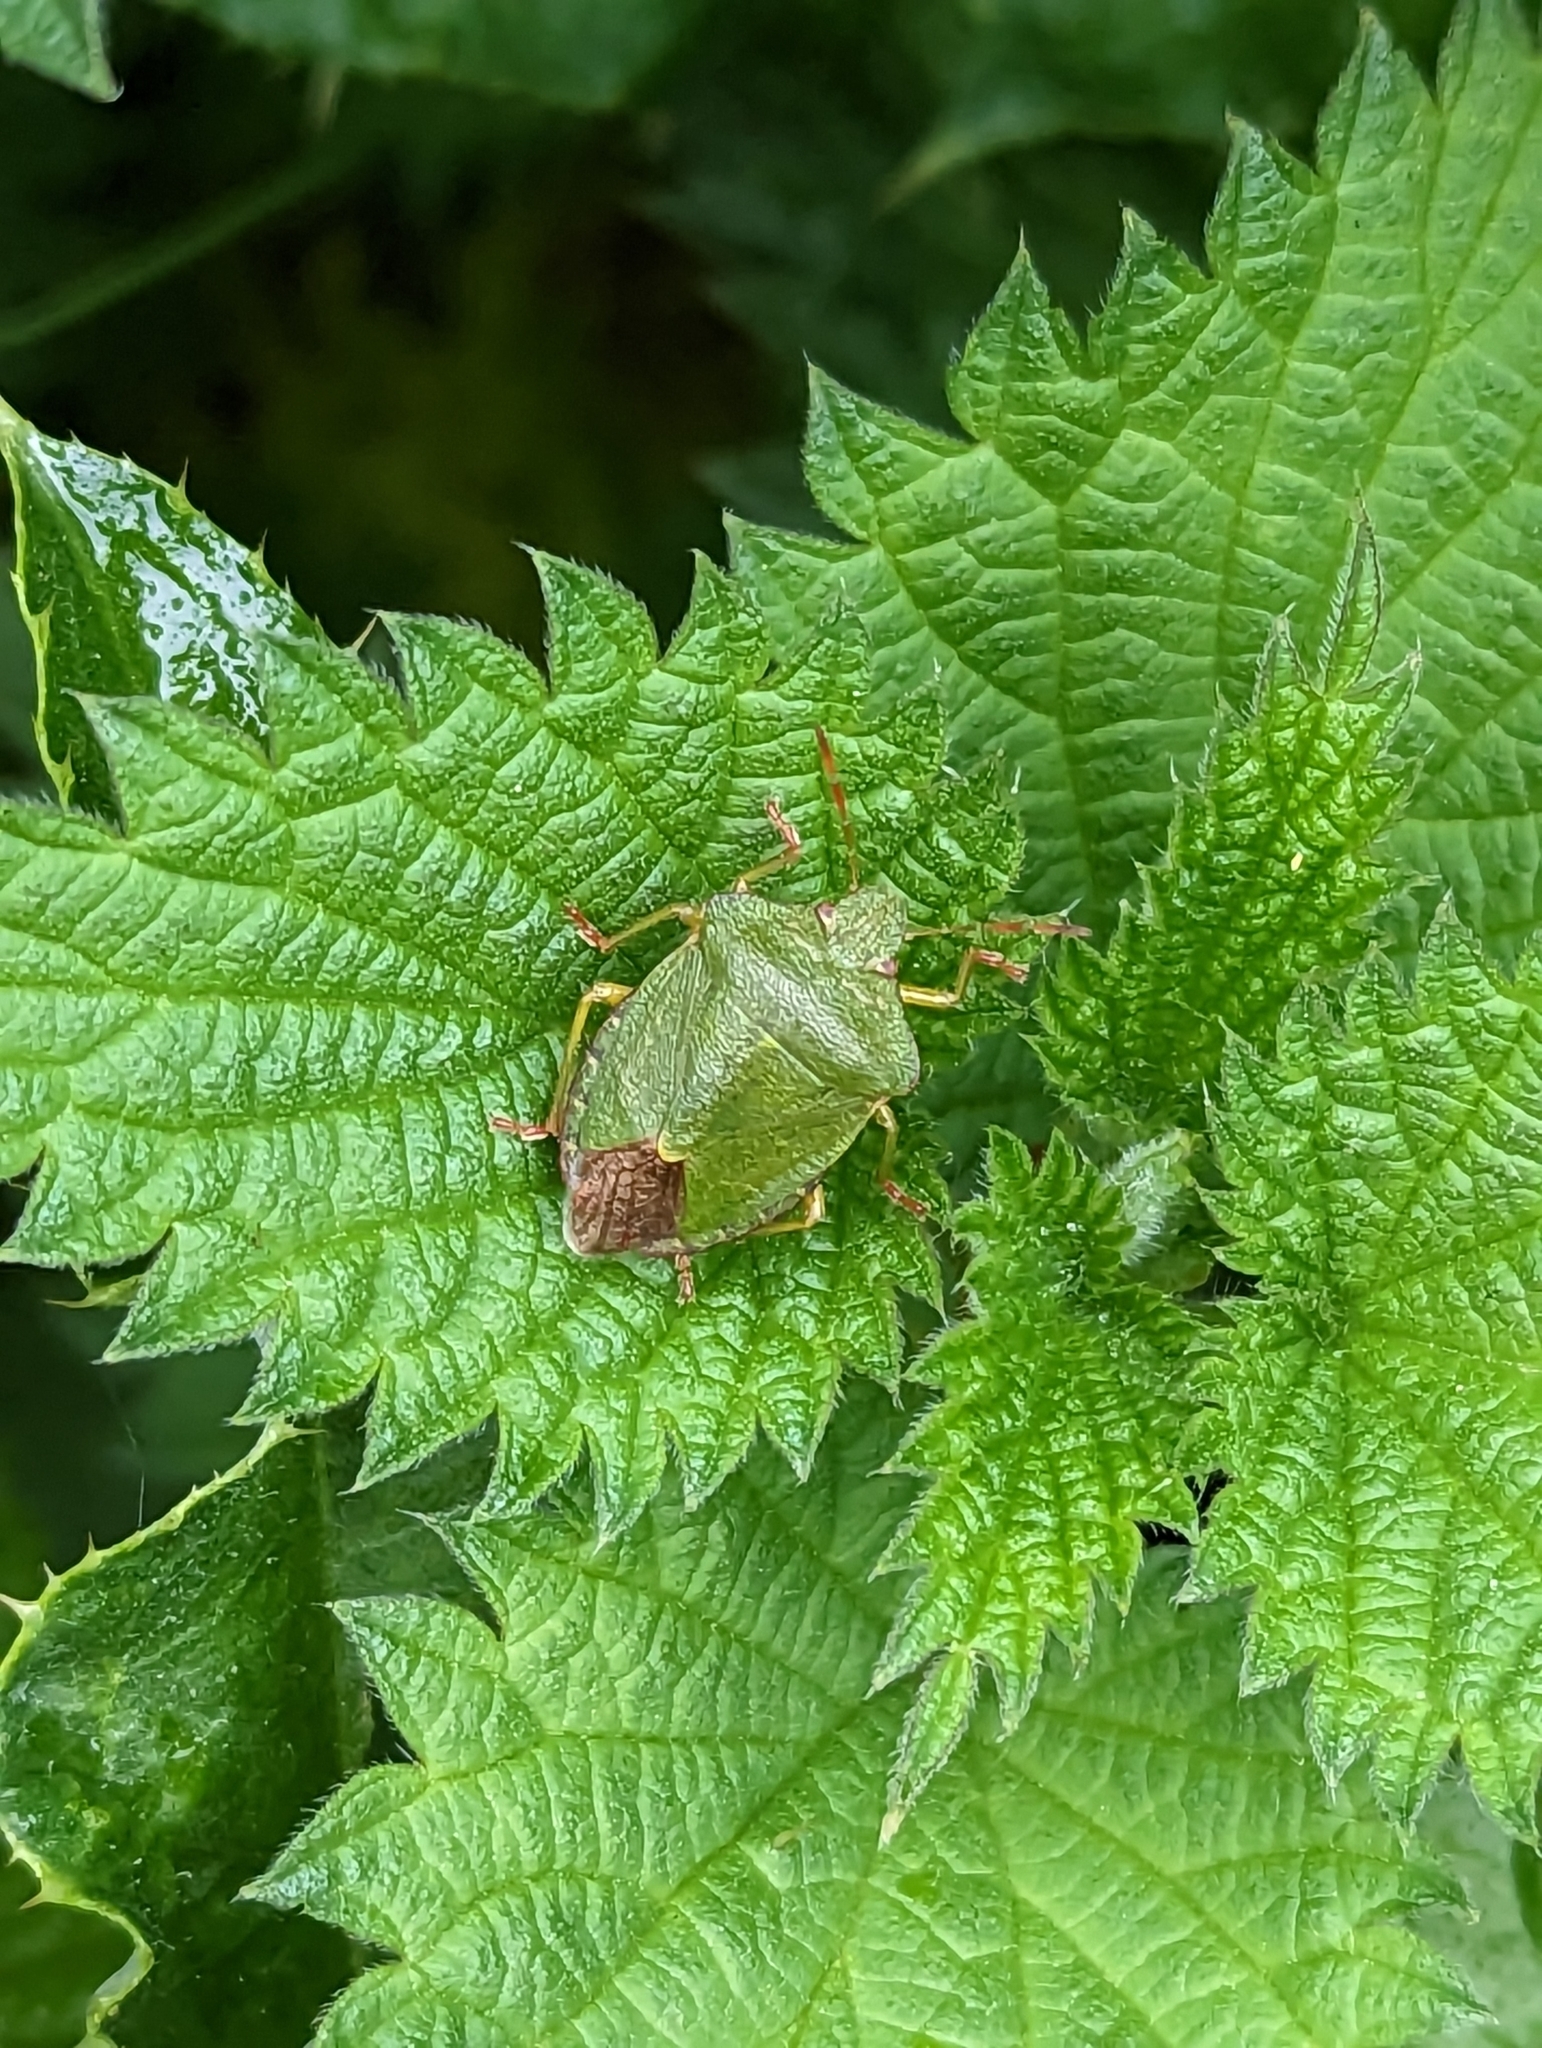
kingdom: Animalia
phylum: Arthropoda
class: Insecta
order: Hemiptera
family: Pentatomidae
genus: Palomena
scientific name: Palomena prasina
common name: Green shieldbug
